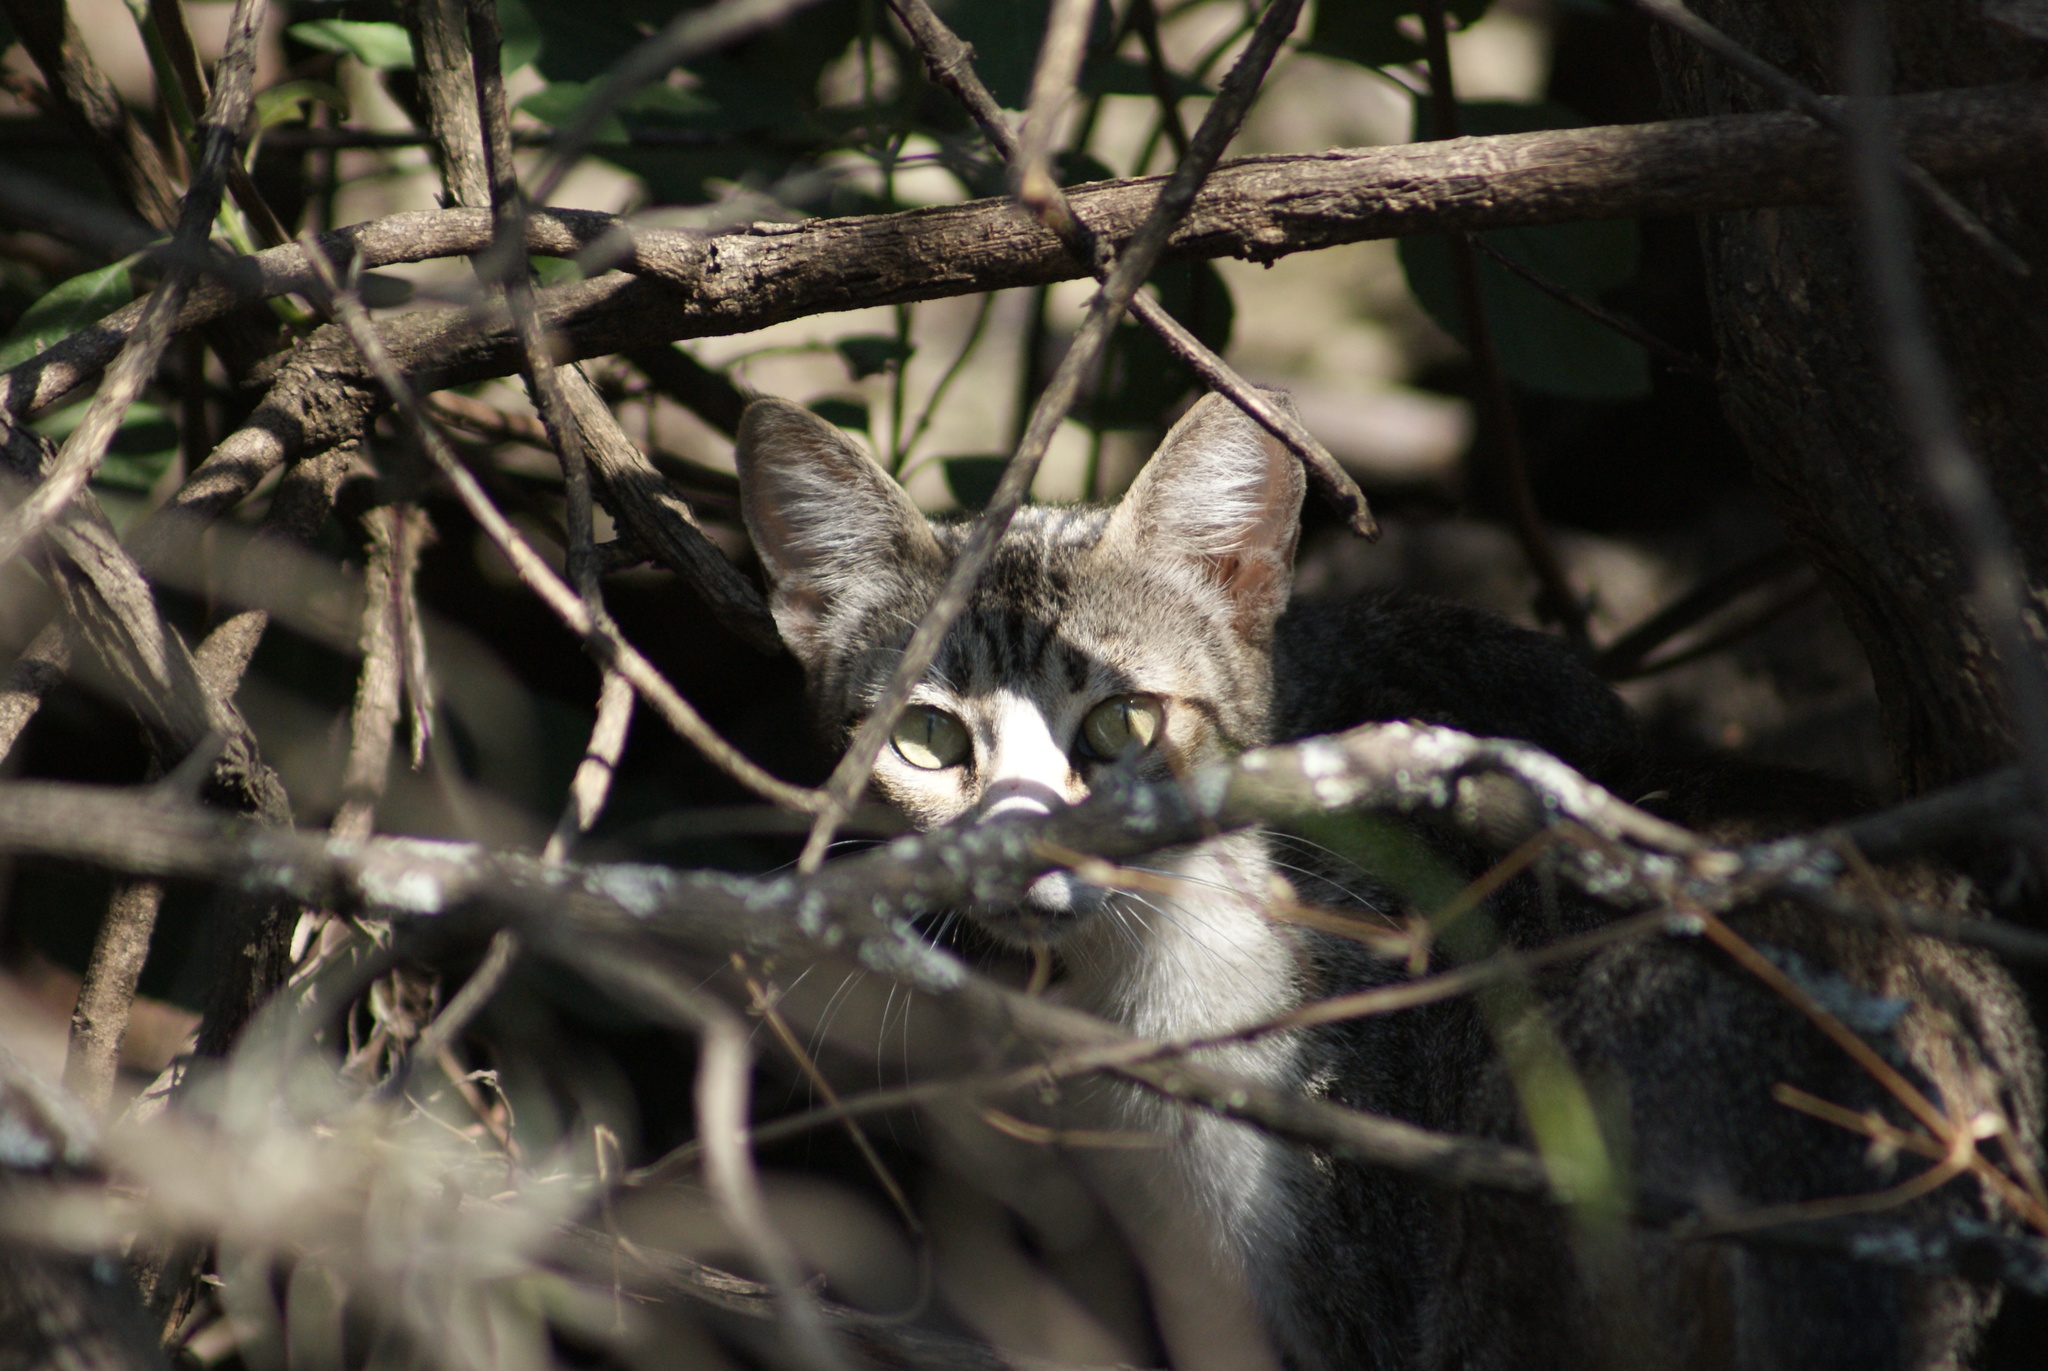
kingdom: Animalia
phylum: Chordata
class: Mammalia
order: Carnivora
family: Felidae
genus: Felis
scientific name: Felis catus
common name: Domestic cat
